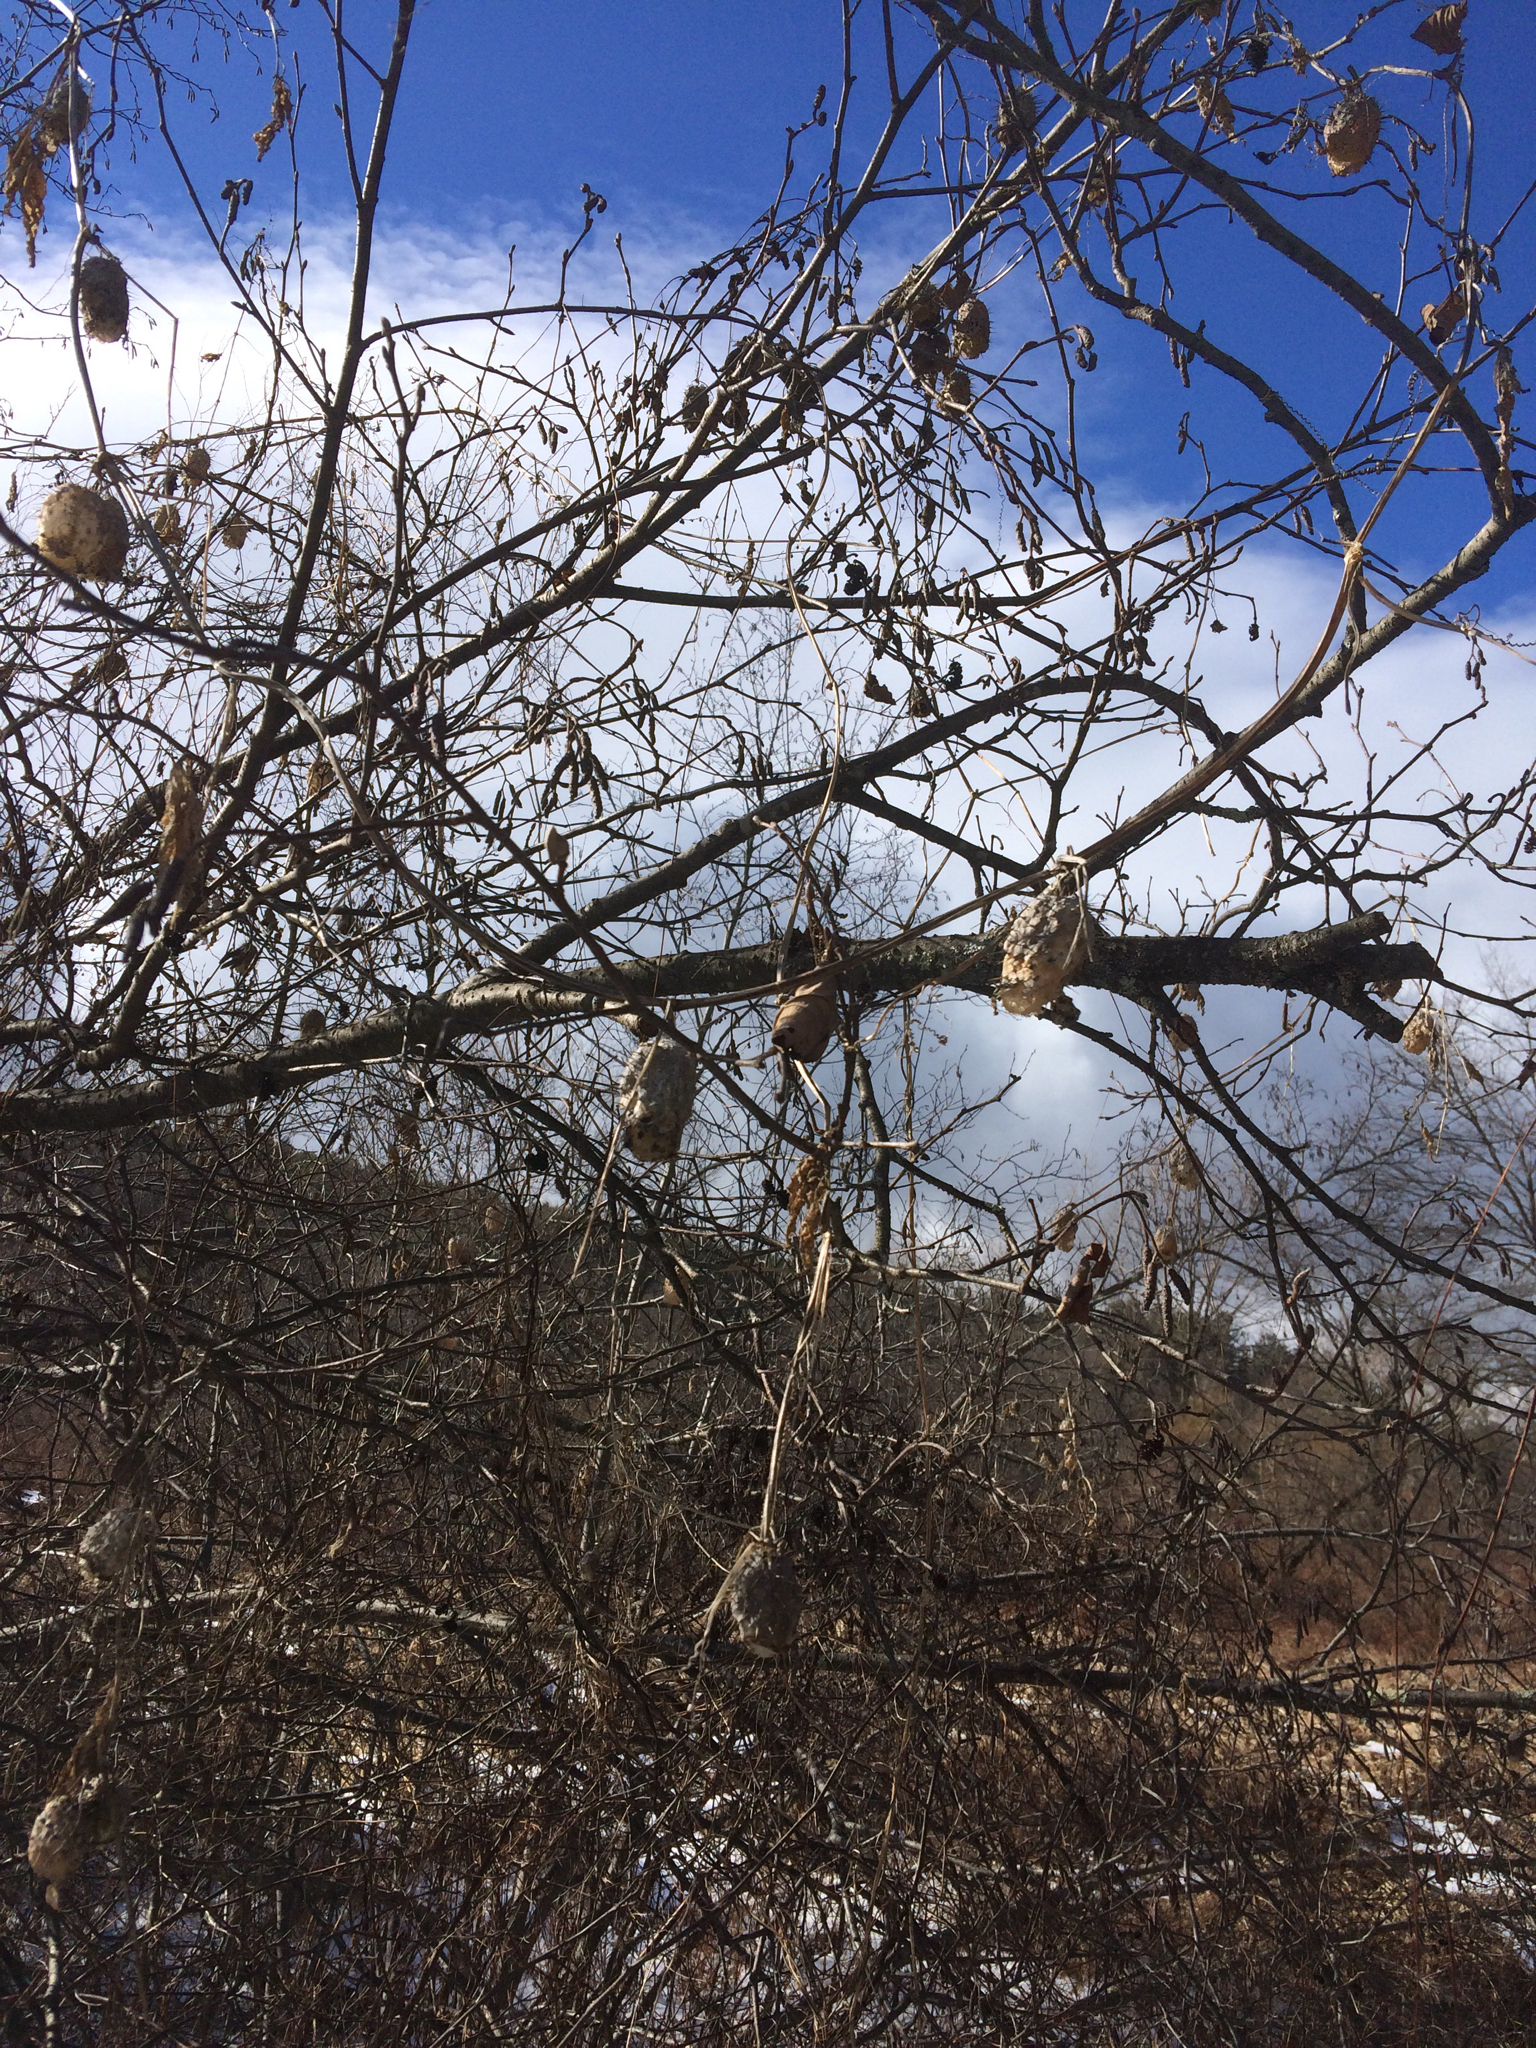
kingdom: Plantae
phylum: Tracheophyta
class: Magnoliopsida
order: Cucurbitales
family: Cucurbitaceae
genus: Echinocystis
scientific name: Echinocystis lobata
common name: Wild cucumber
